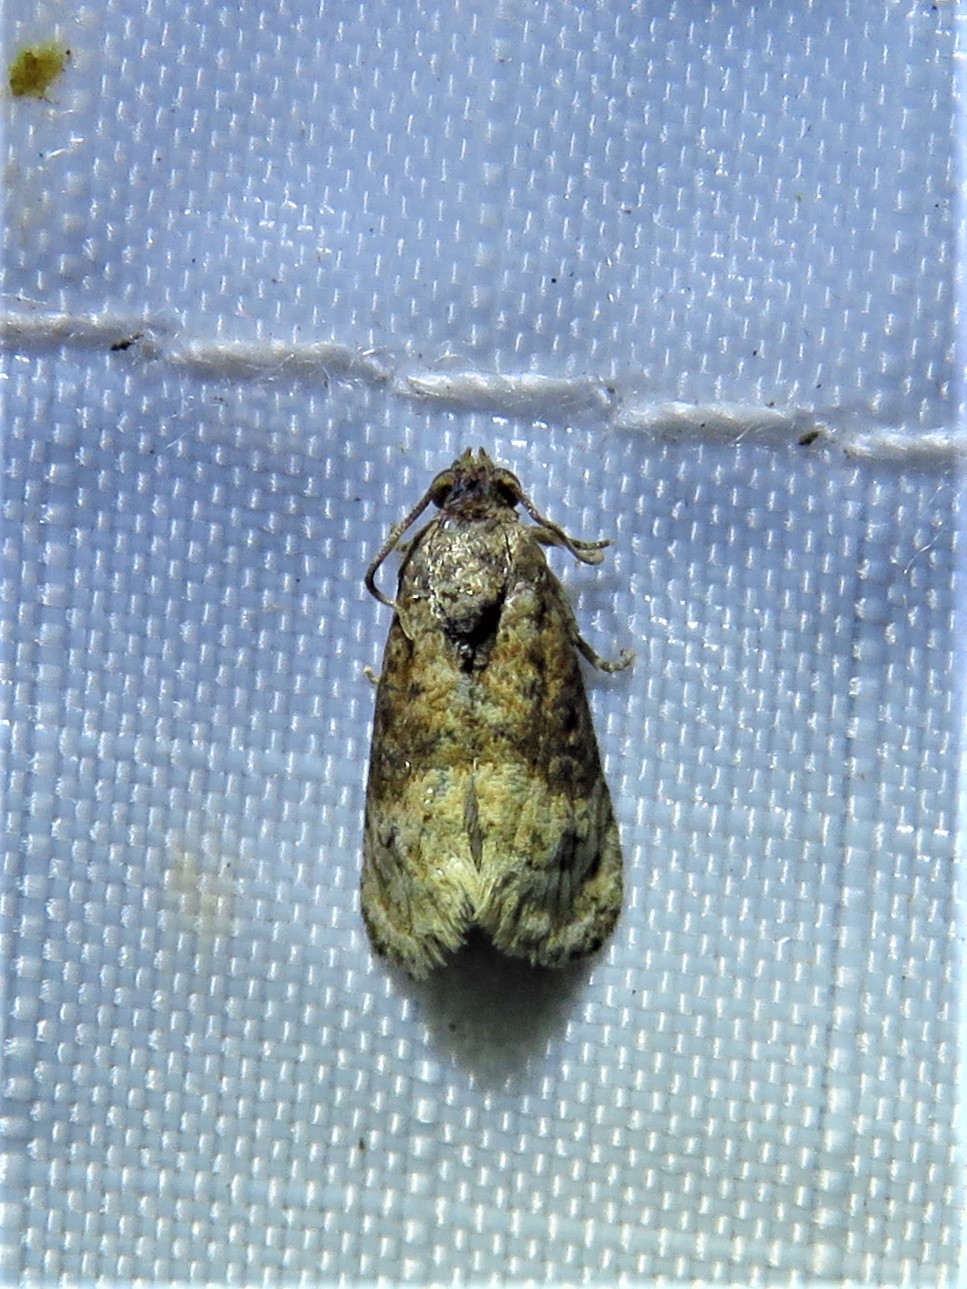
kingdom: Animalia
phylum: Arthropoda
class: Insecta
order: Lepidoptera
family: Tortricidae
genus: Ecdytolopha
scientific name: Ecdytolopha mana
